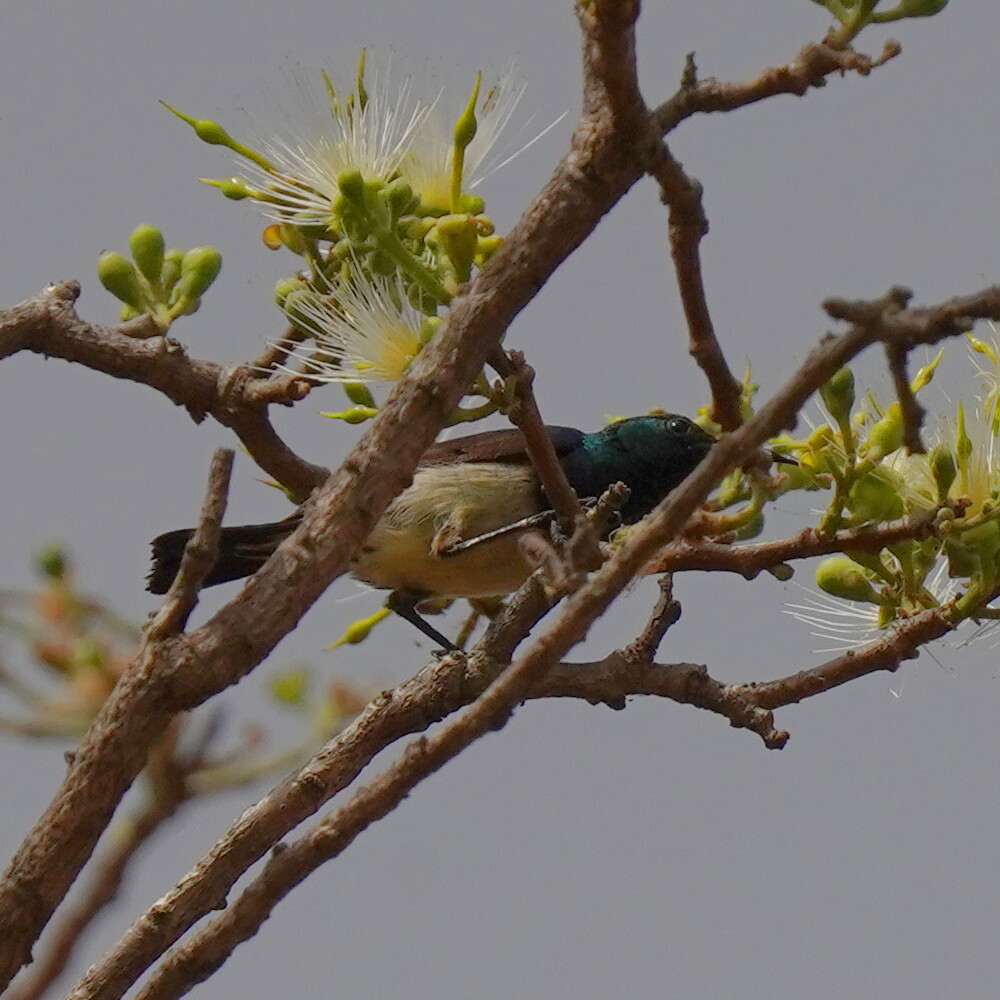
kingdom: Animalia
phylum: Chordata
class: Aves
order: Passeriformes
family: Nectariniidae
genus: Cinnyris
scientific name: Cinnyris venustus
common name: Variable sunbird
